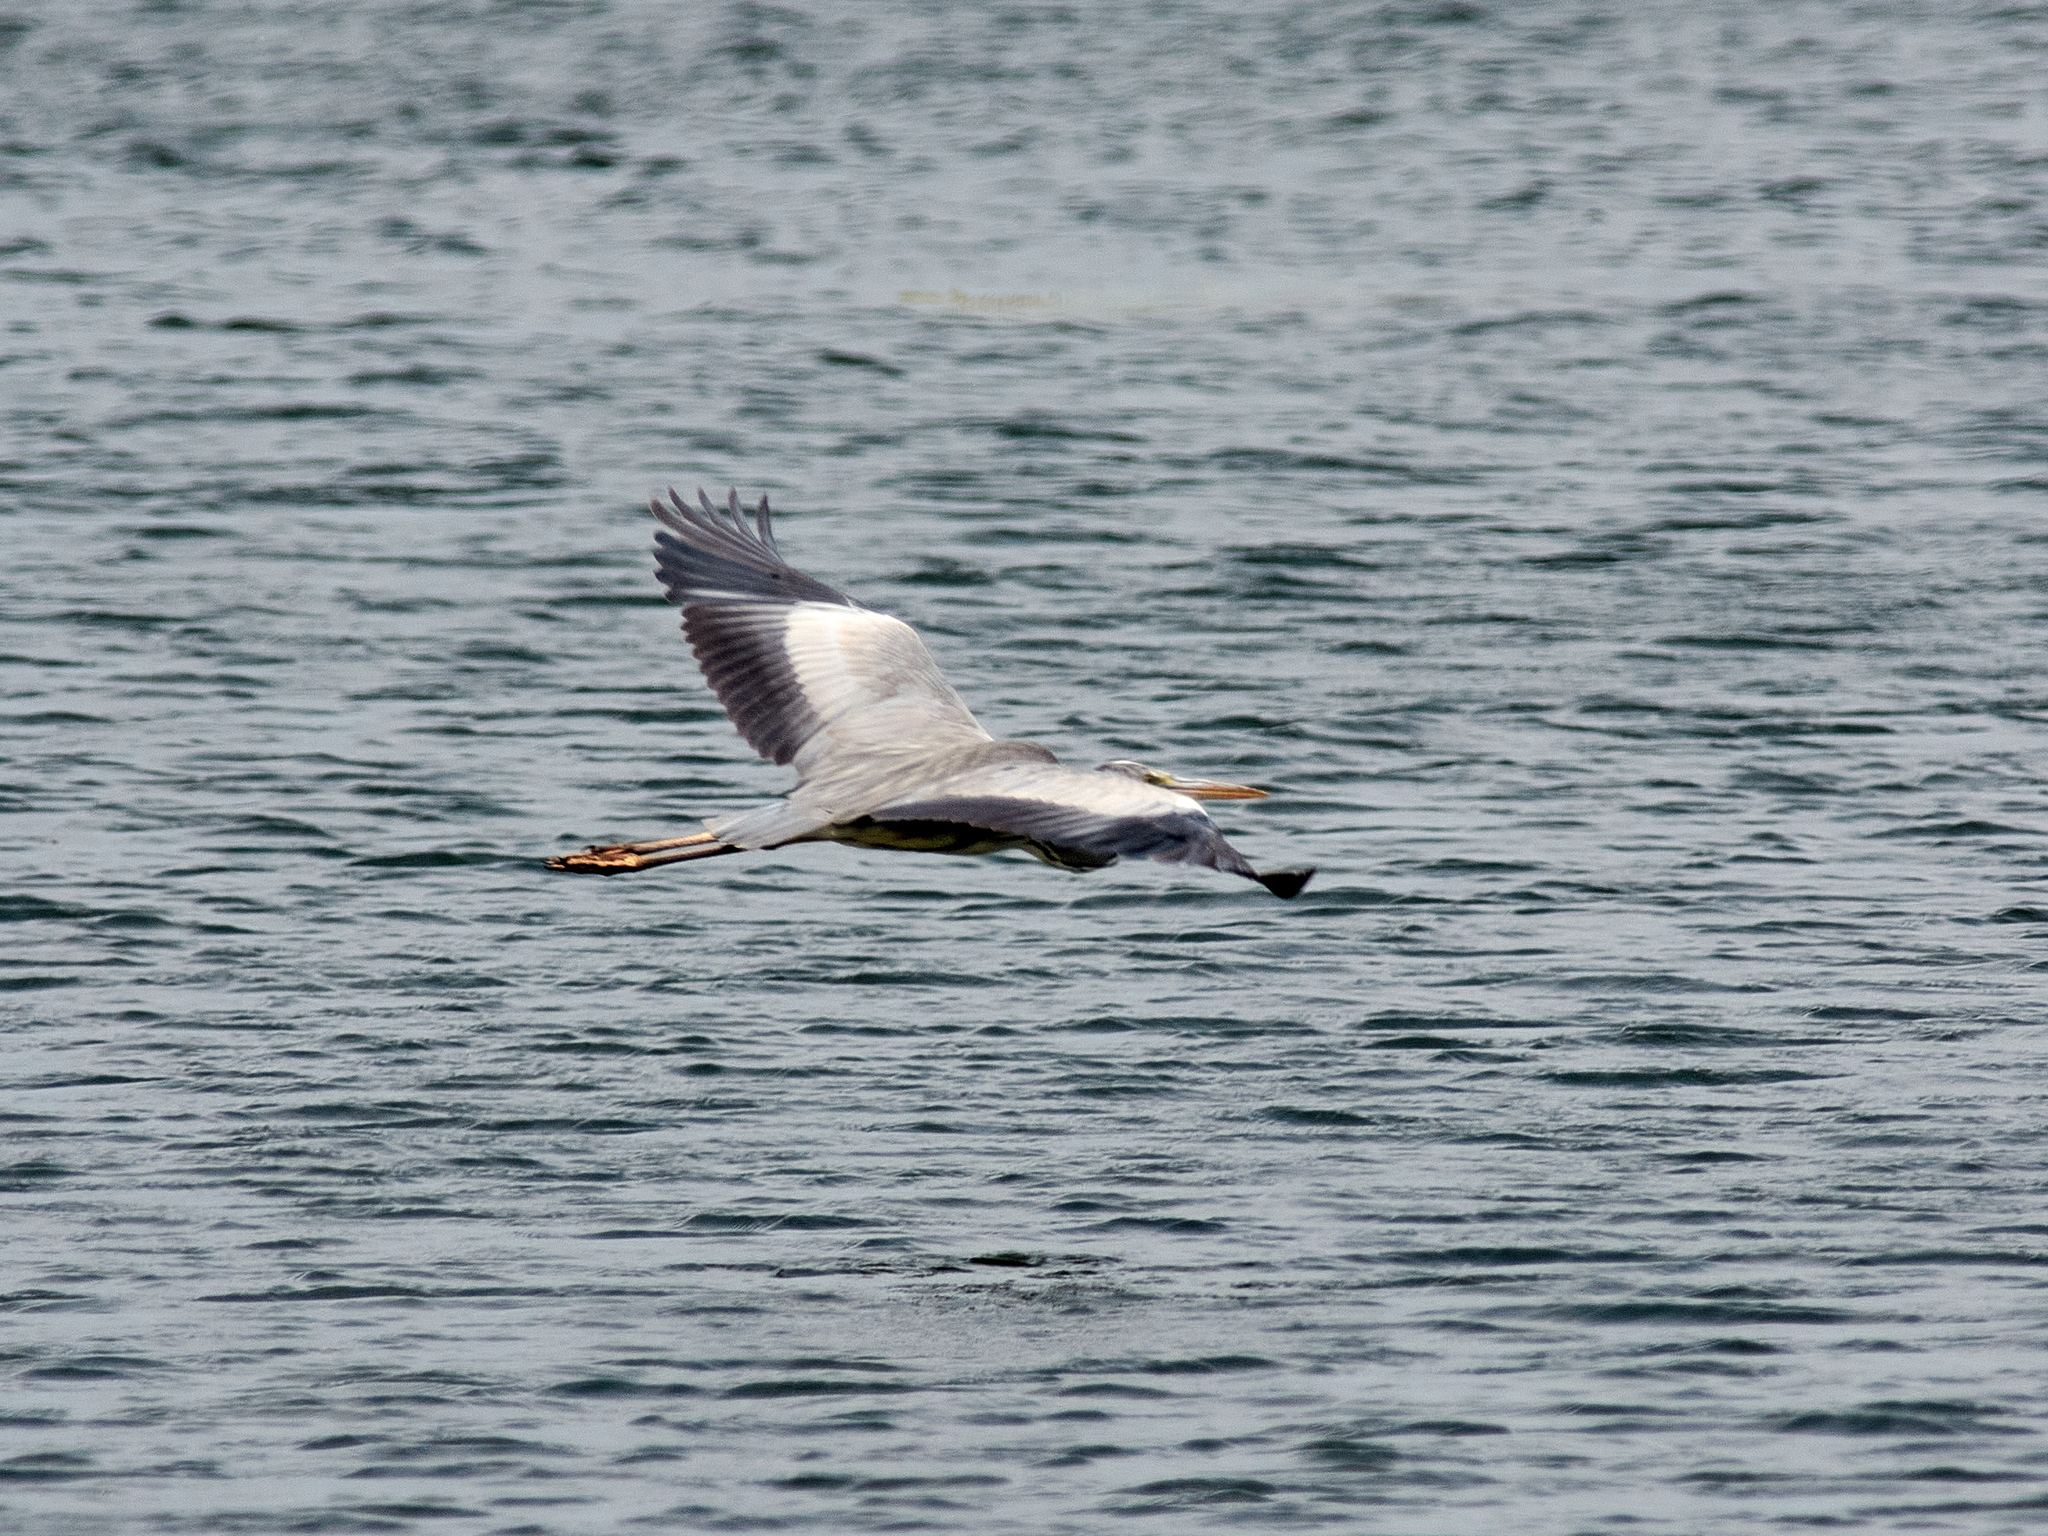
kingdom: Animalia
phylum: Chordata
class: Aves
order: Pelecaniformes
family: Ardeidae
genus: Ardea
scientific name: Ardea cinerea
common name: Grey heron
